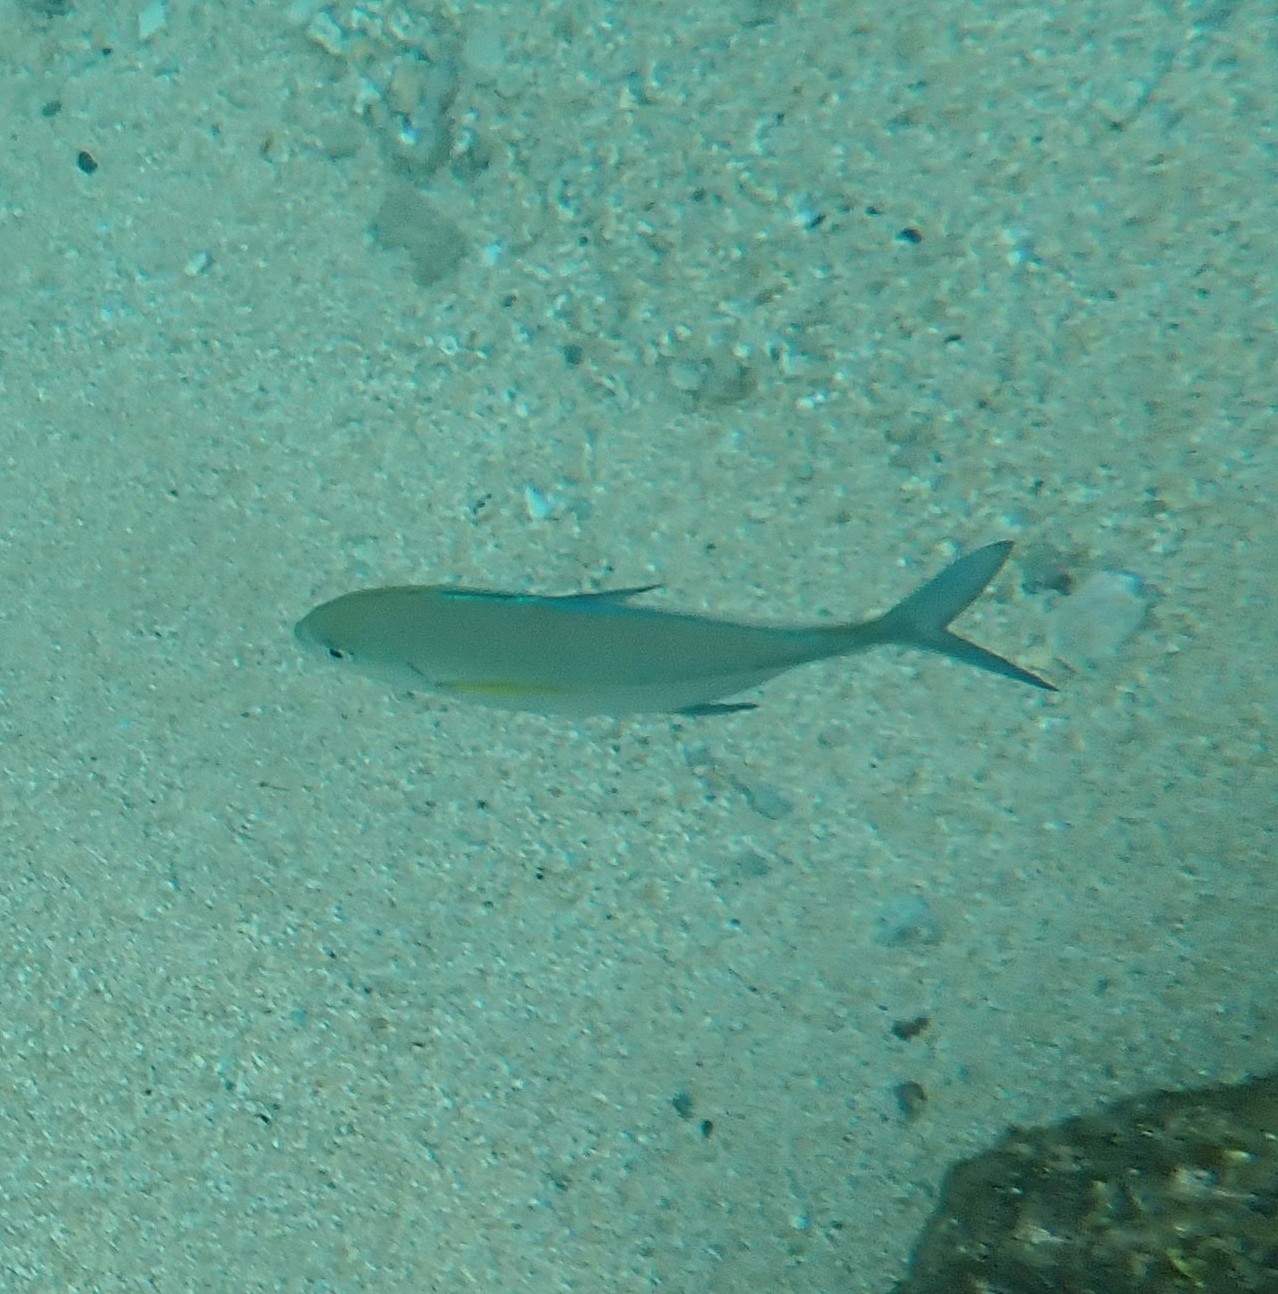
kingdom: Animalia
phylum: Chordata
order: Perciformes
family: Carangidae
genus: Caranx
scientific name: Caranx melampygus
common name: Bluefin trevally
